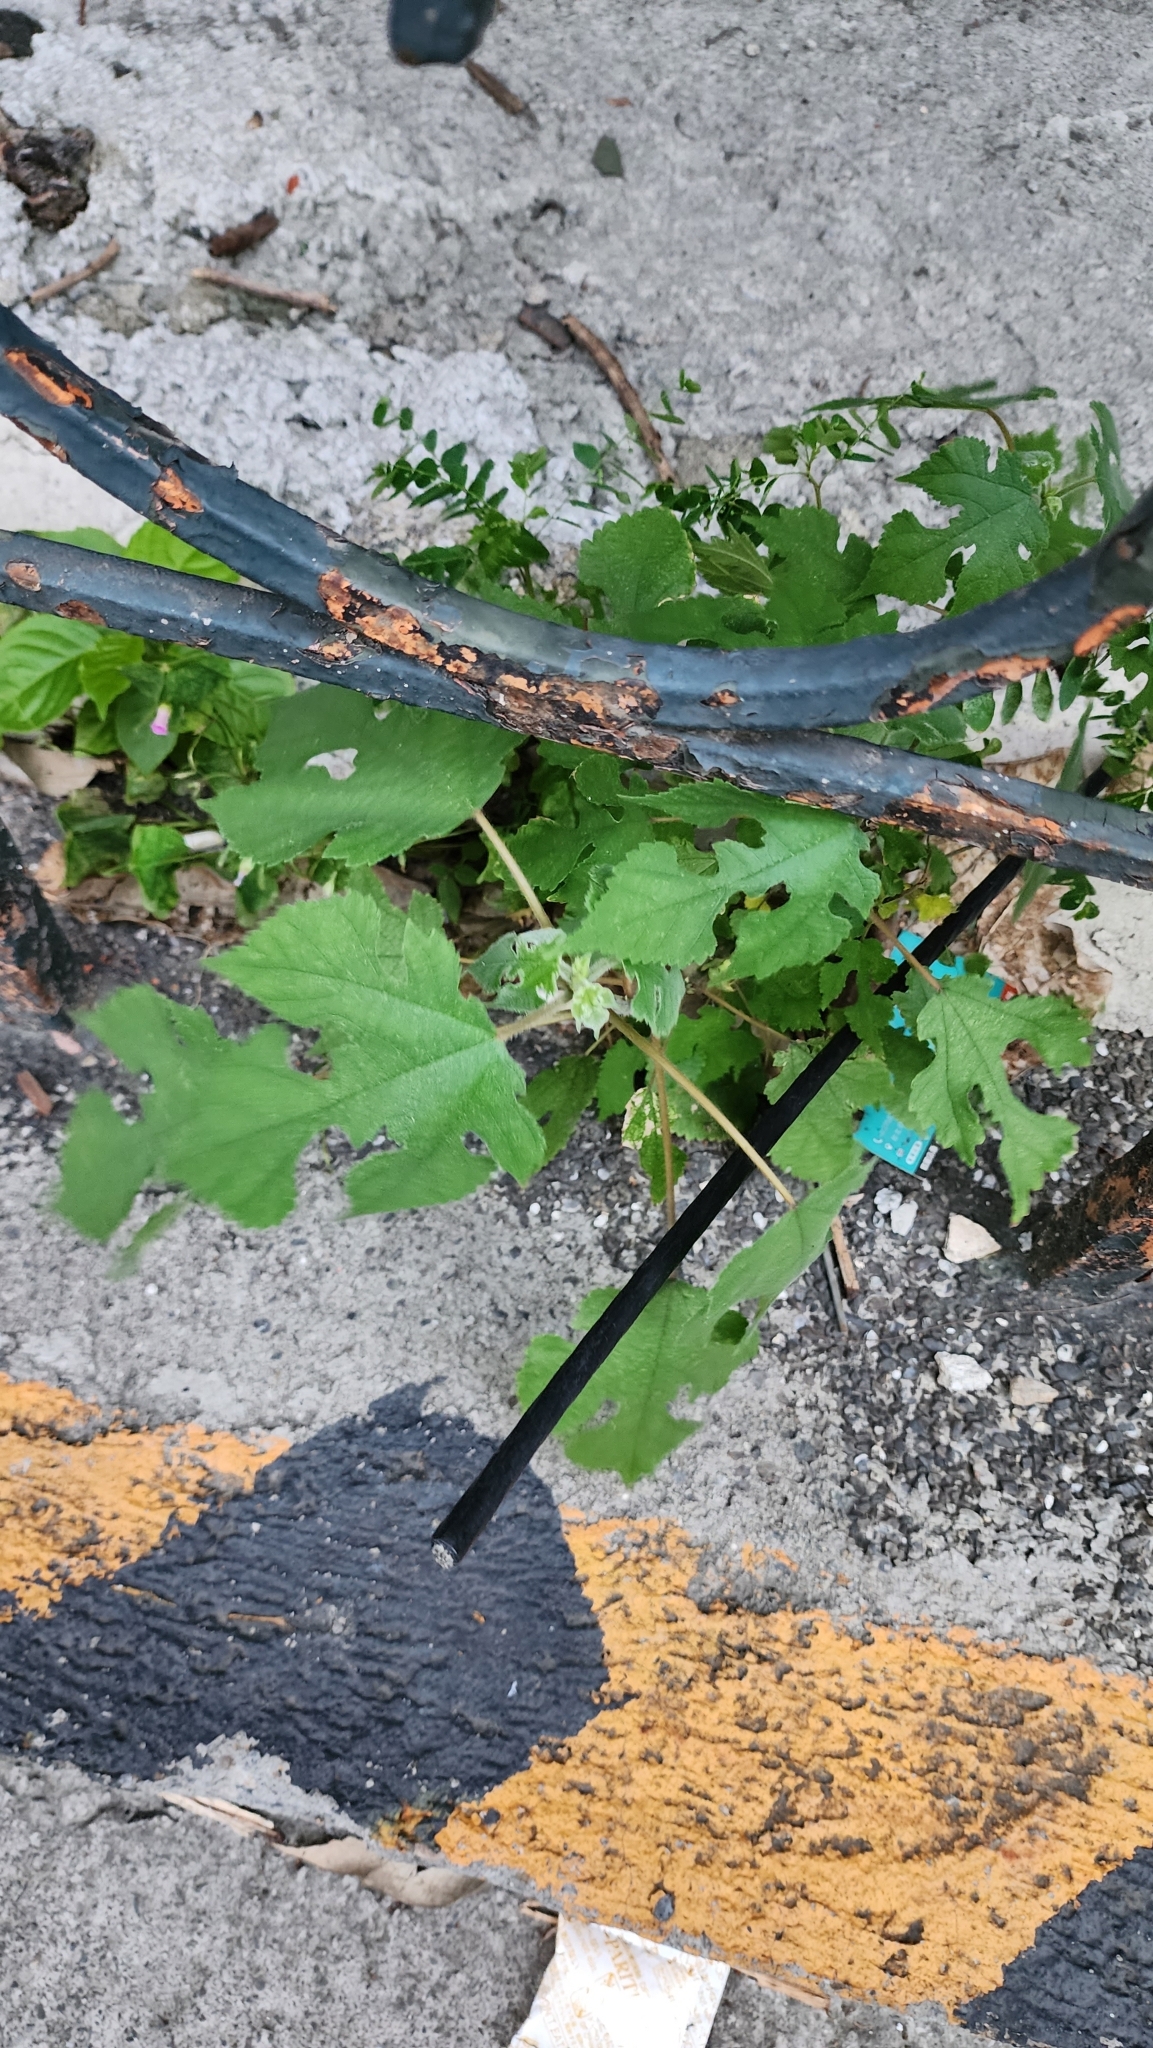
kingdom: Plantae
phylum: Tracheophyta
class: Magnoliopsida
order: Rosales
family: Moraceae
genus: Broussonetia
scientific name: Broussonetia papyrifera
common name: Paper mulberry
